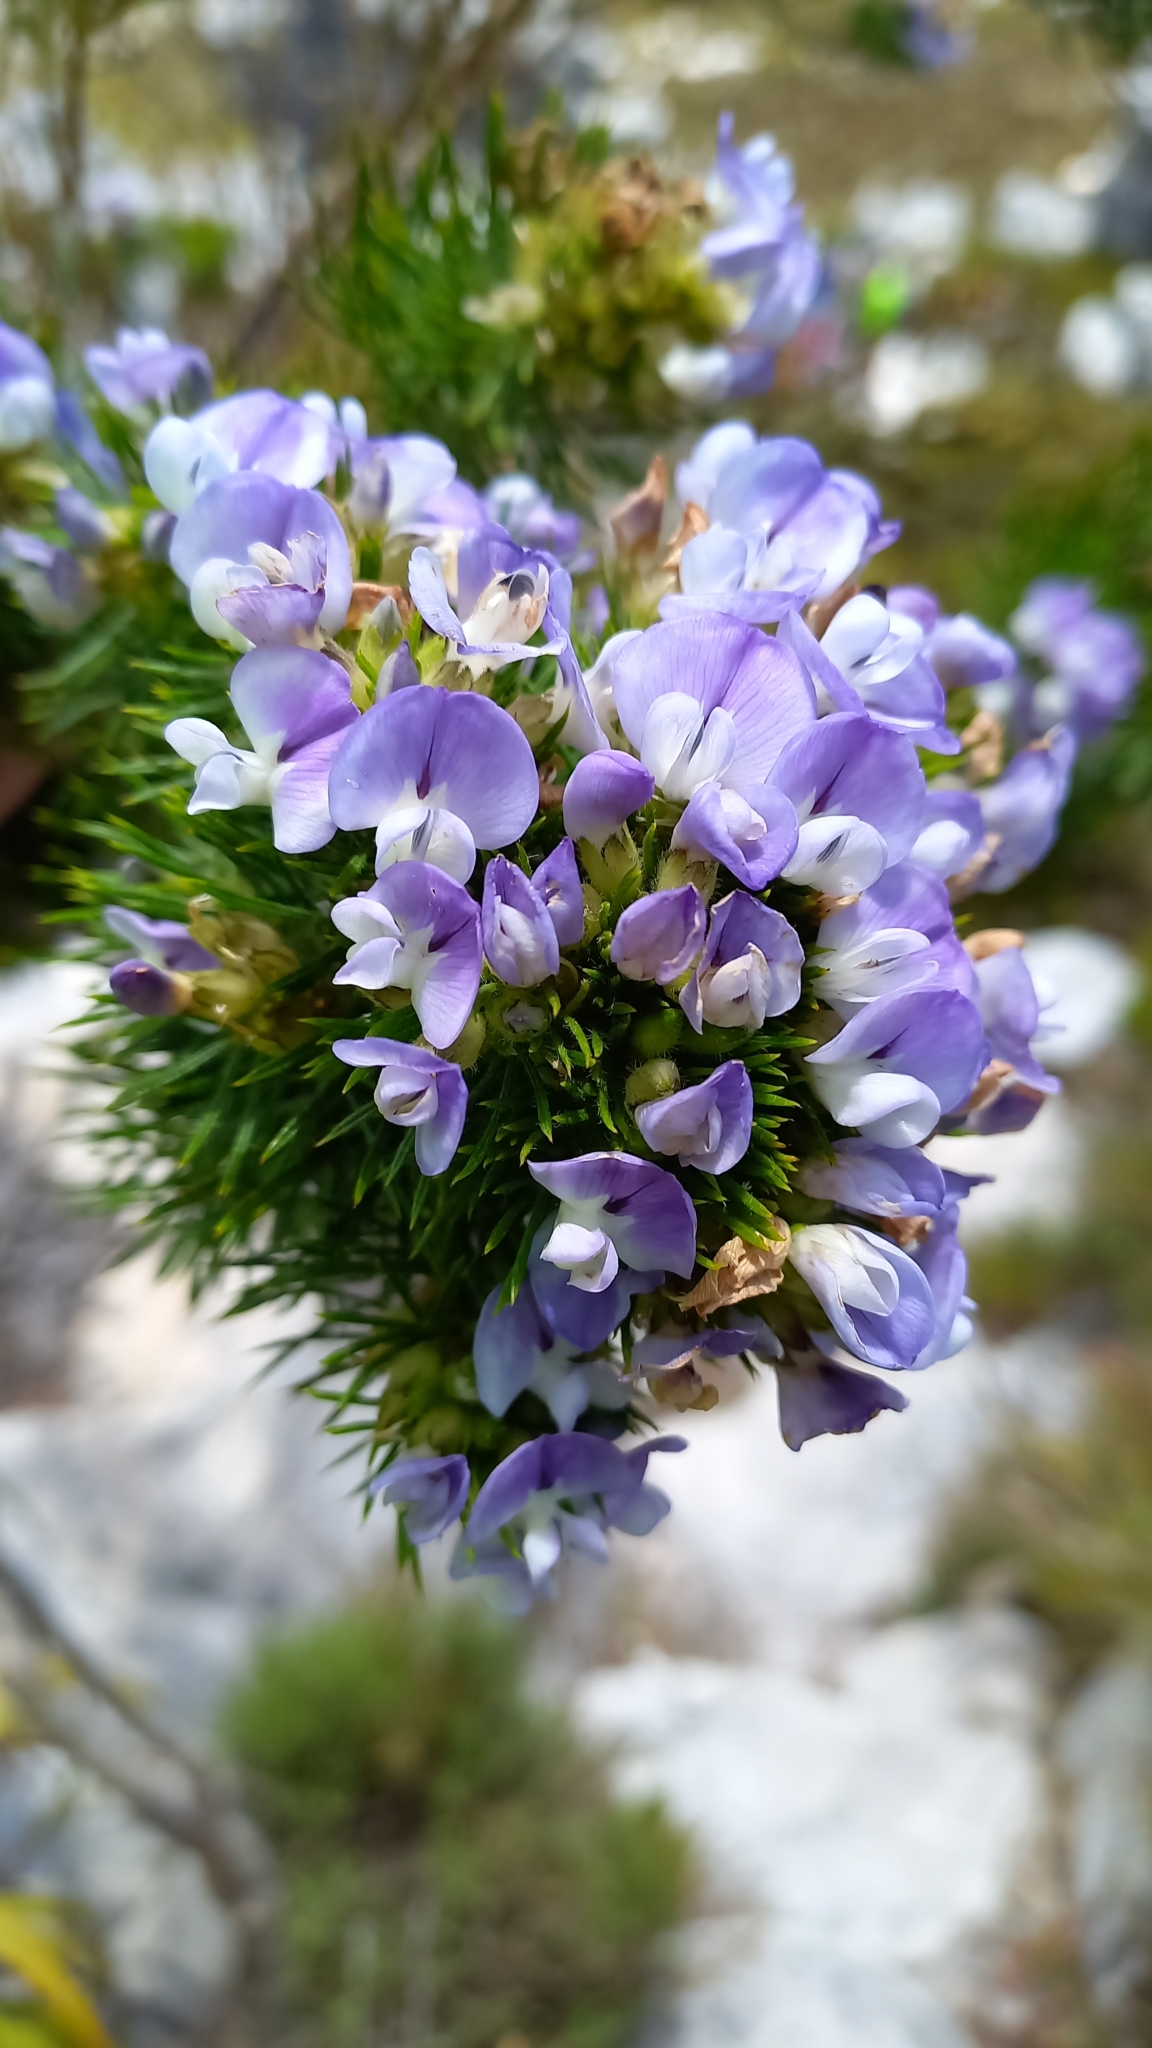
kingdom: Plantae
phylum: Tracheophyta
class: Magnoliopsida
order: Fabales
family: Fabaceae
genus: Psoralea
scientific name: Psoralea pinnata
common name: African scurfpea
